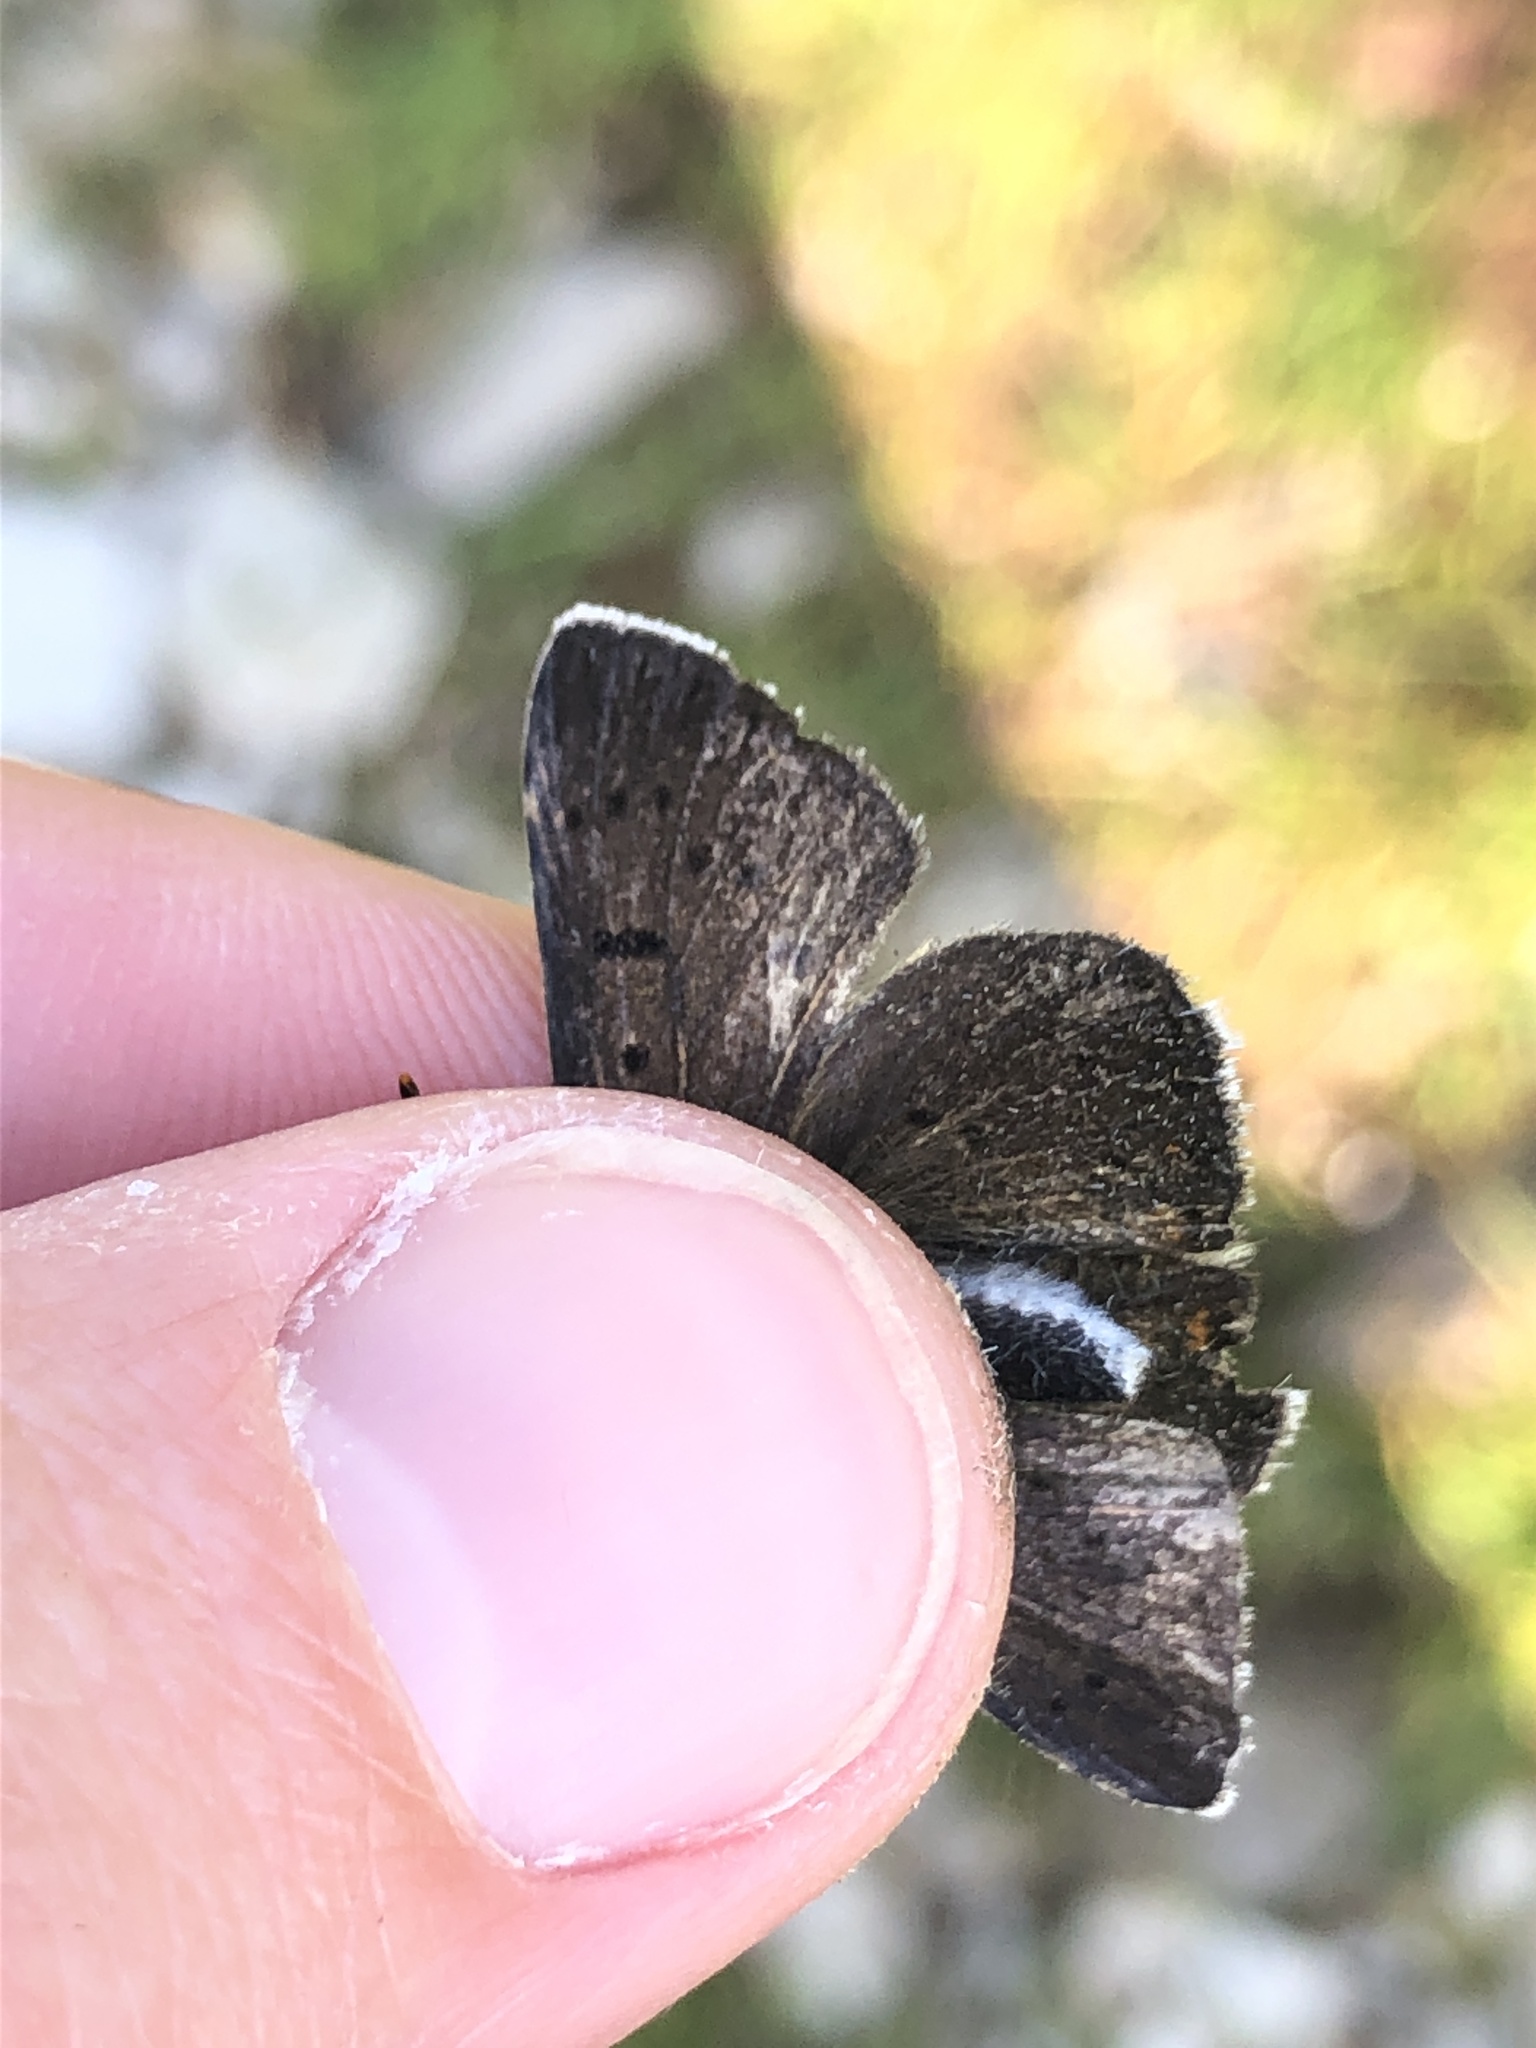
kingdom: Animalia
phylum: Arthropoda
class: Insecta
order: Lepidoptera
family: Lycaenidae
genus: Loweia
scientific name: Loweia tityrus
